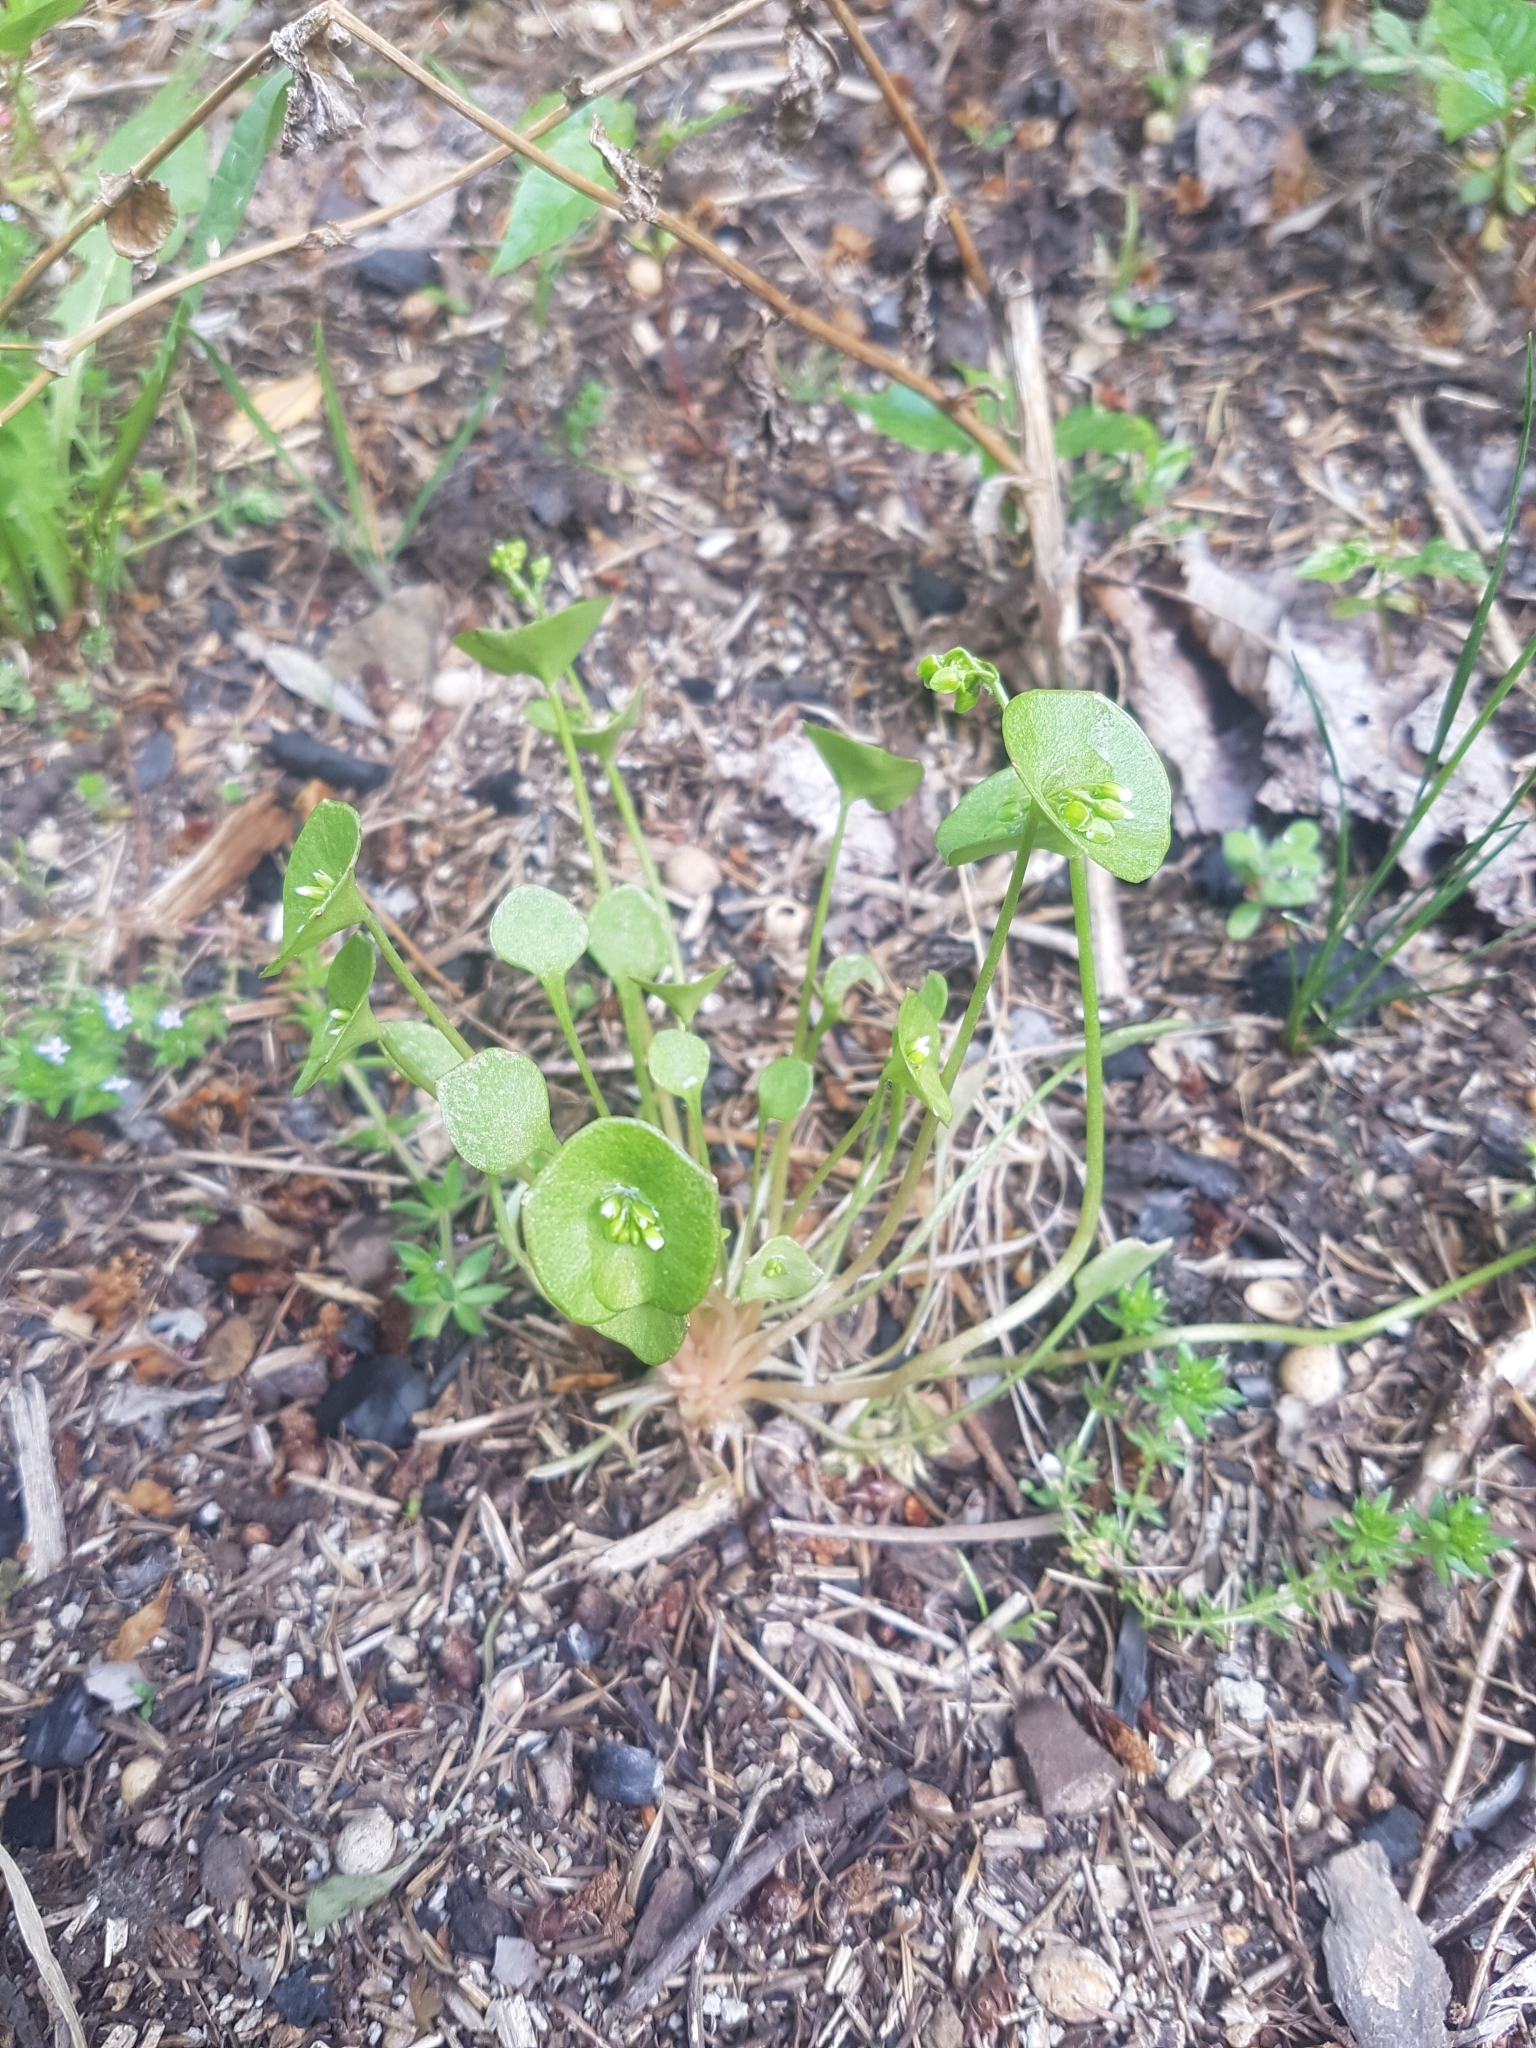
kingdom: Plantae
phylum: Tracheophyta
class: Magnoliopsida
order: Caryophyllales
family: Montiaceae
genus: Claytonia
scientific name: Claytonia perfoliata
